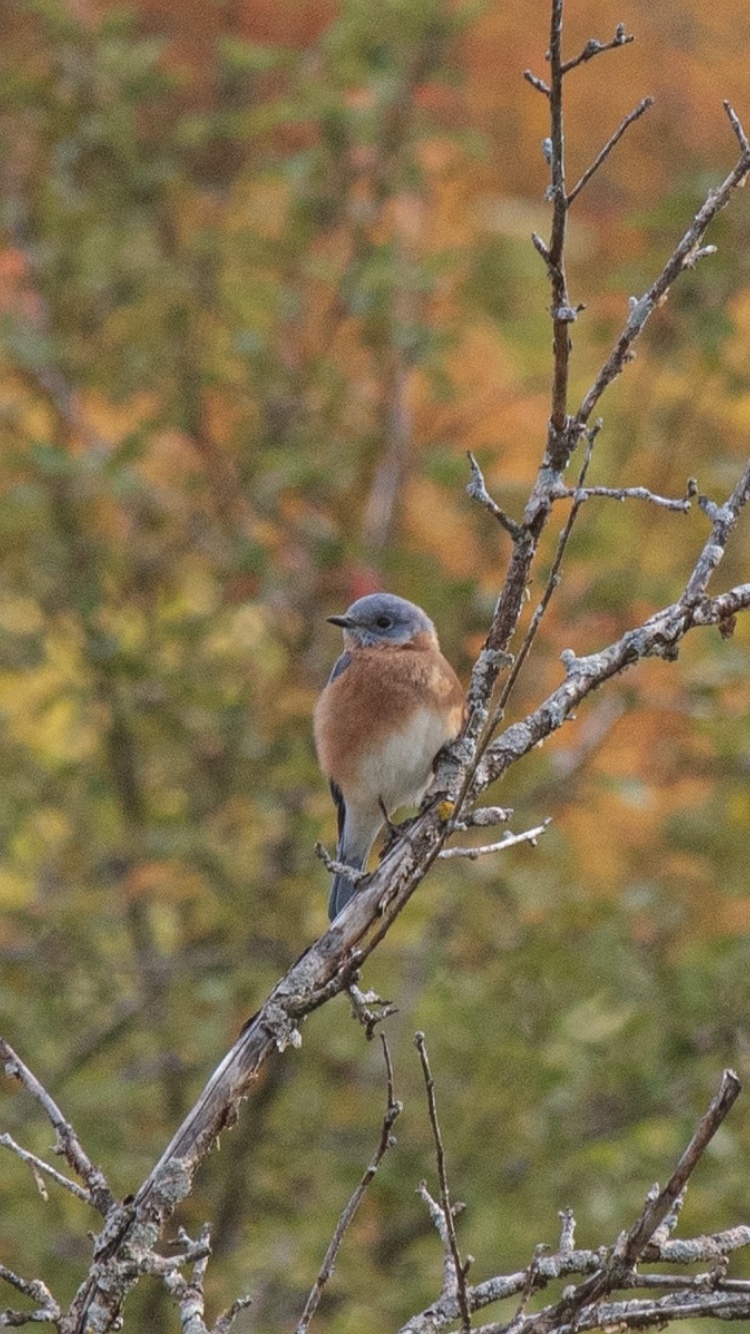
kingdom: Animalia
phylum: Chordata
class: Aves
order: Passeriformes
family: Turdidae
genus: Sialia
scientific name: Sialia sialis
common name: Eastern bluebird
